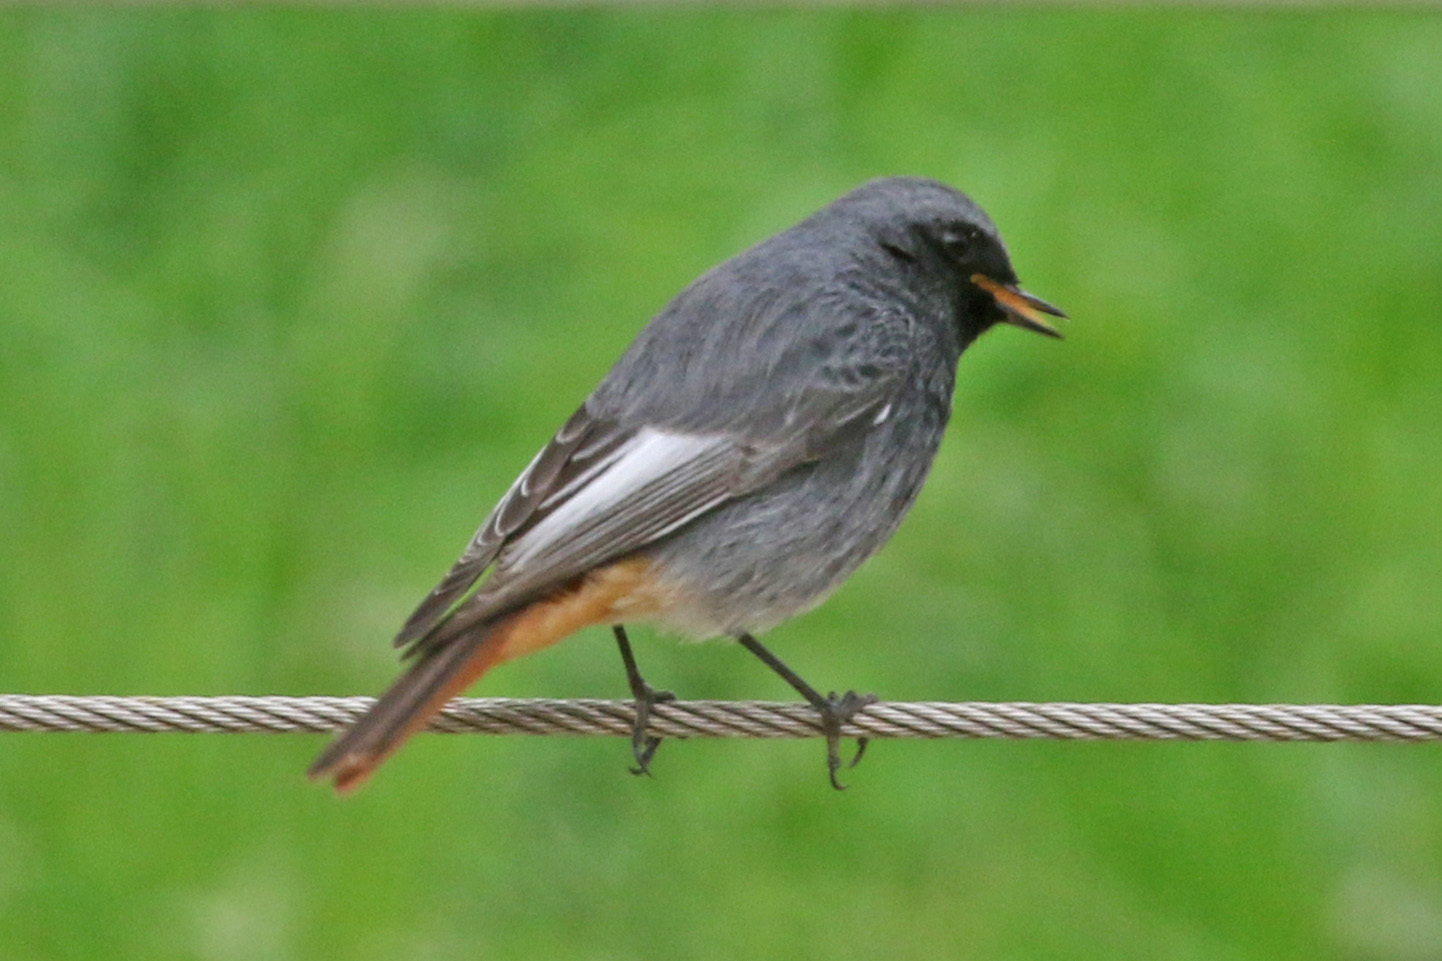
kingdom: Animalia
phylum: Chordata
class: Aves
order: Passeriformes
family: Muscicapidae
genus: Phoenicurus
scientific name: Phoenicurus ochruros
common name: Black redstart
